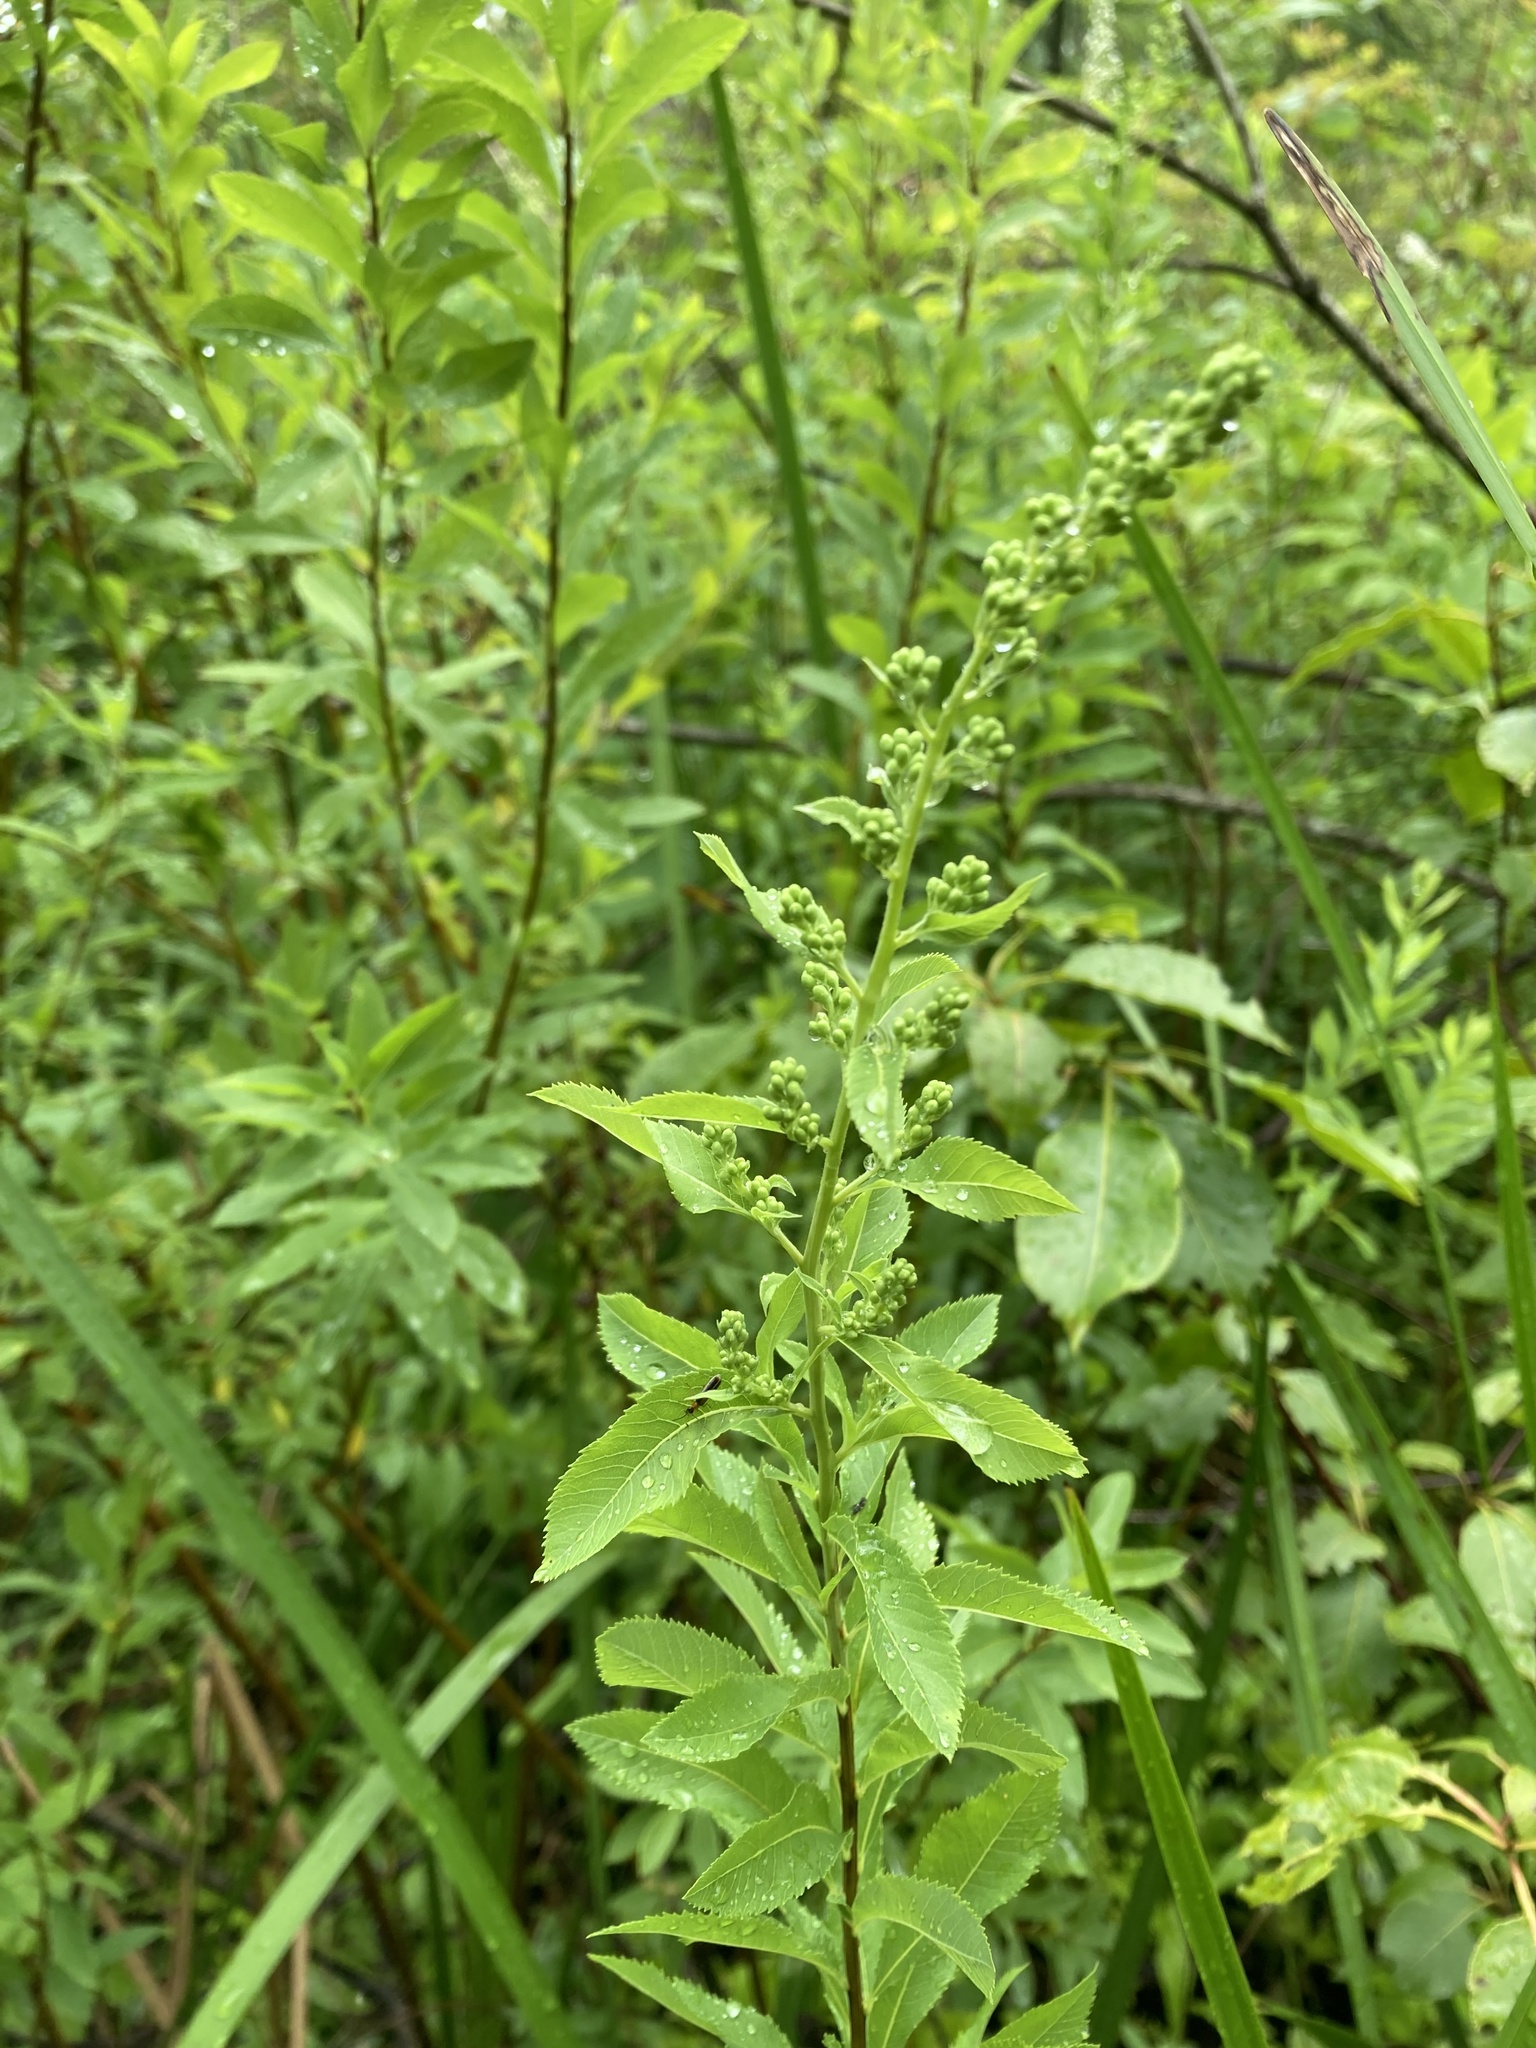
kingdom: Plantae
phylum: Tracheophyta
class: Magnoliopsida
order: Rosales
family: Rosaceae
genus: Spiraea
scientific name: Spiraea alba
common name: Pale bridewort
